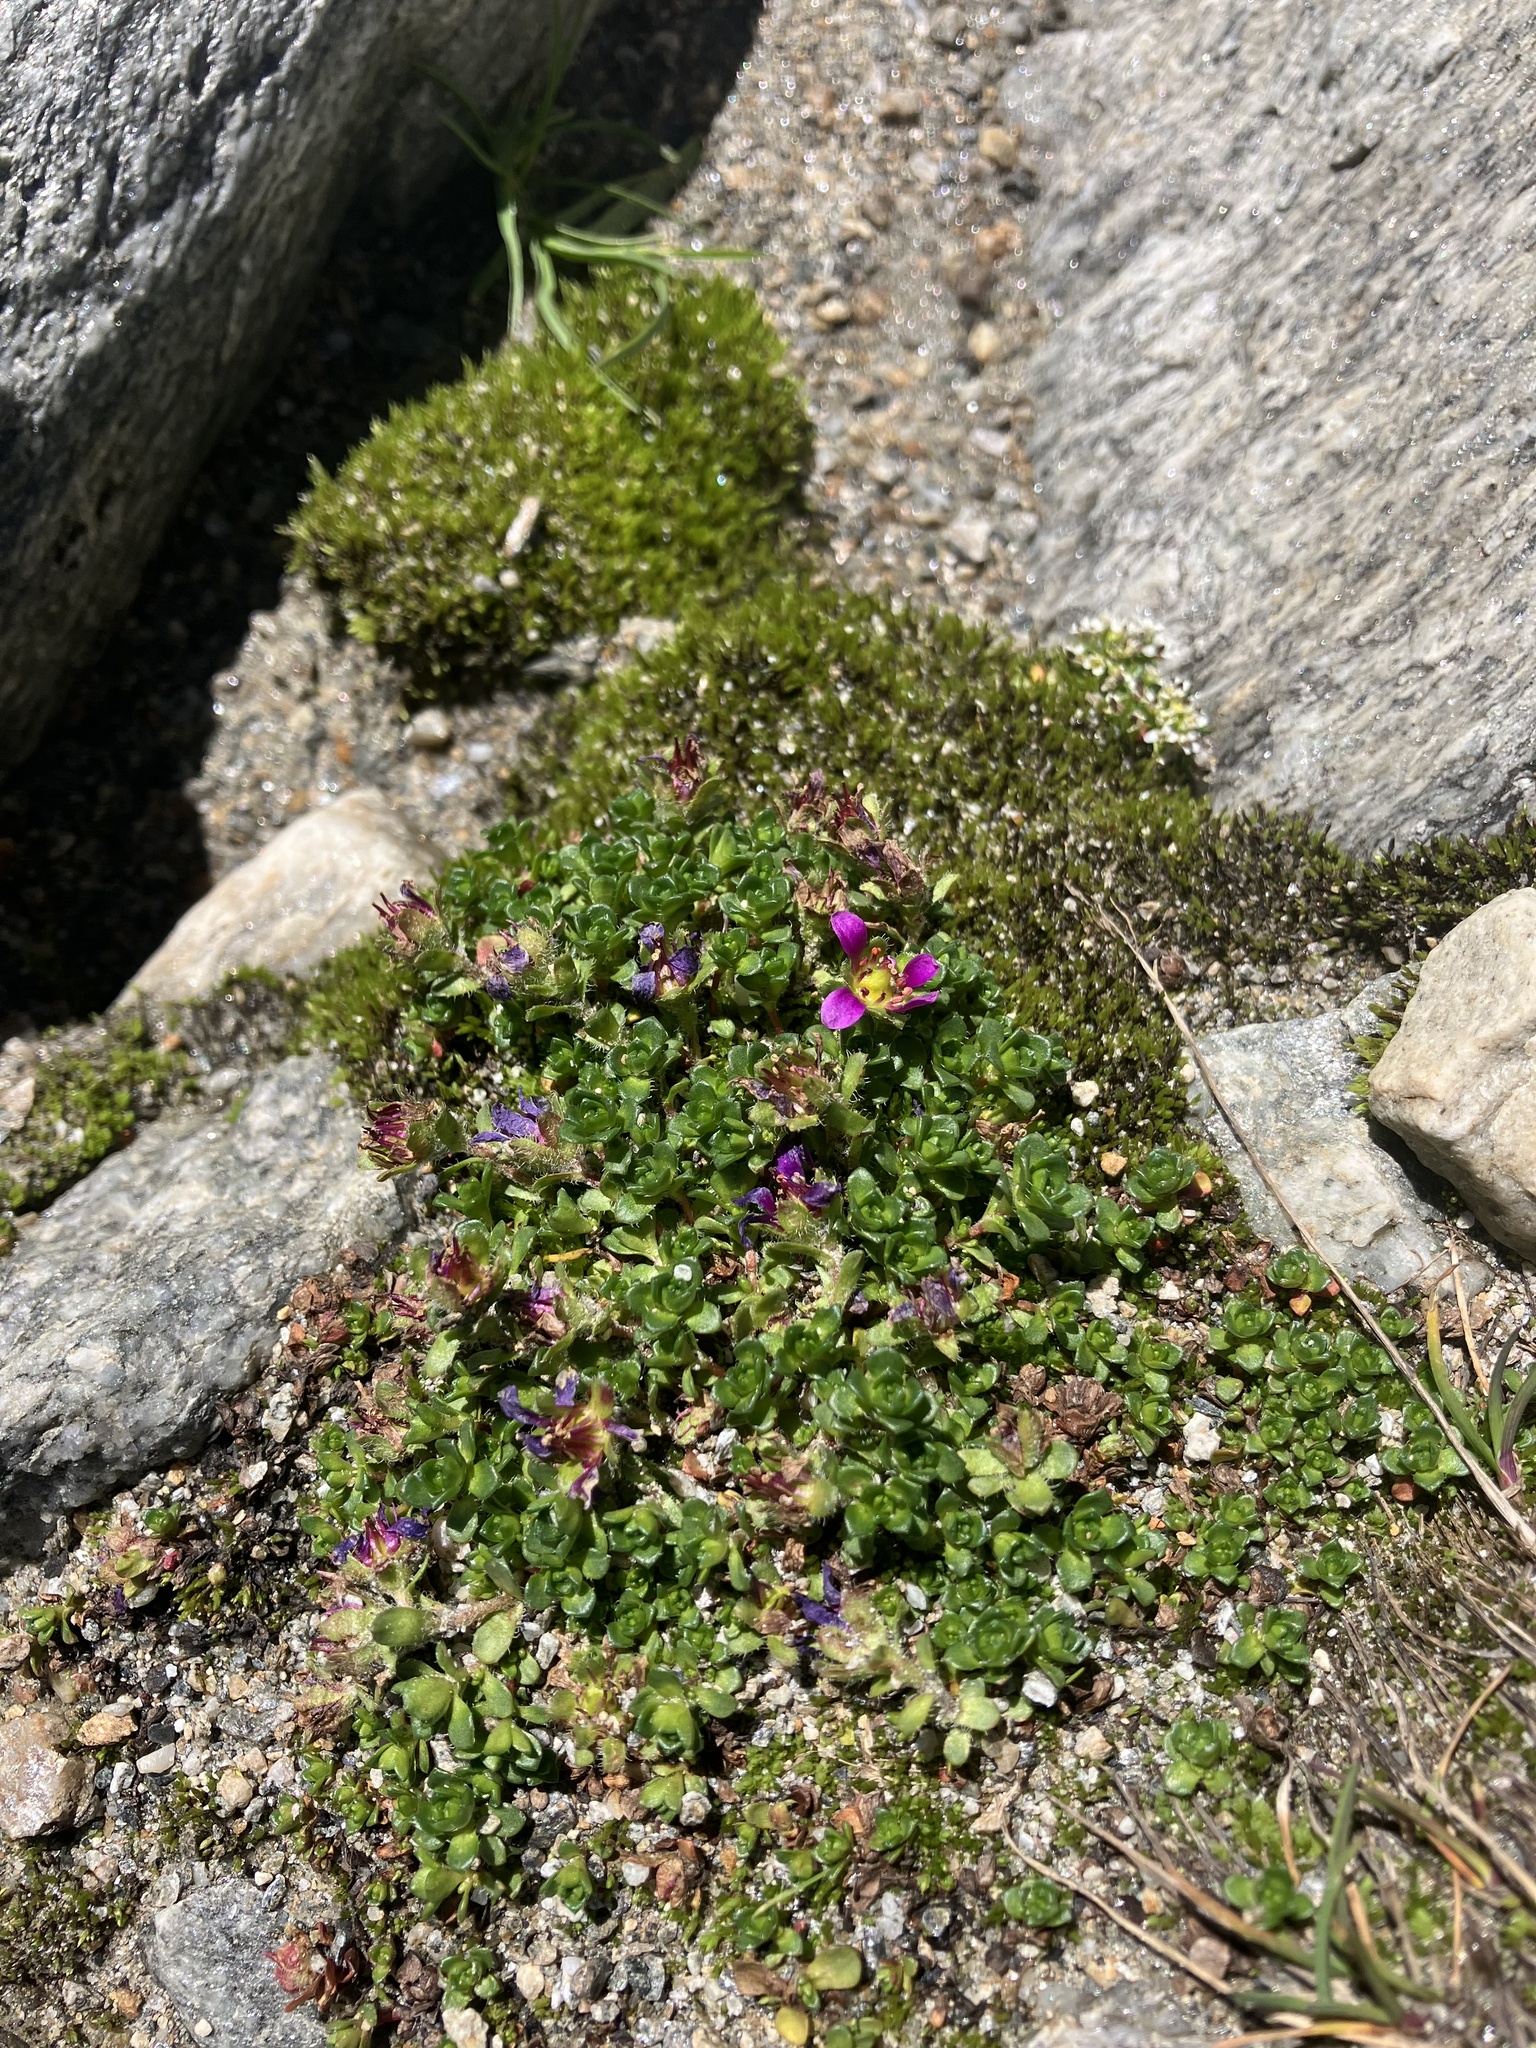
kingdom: Plantae
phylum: Tracheophyta
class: Magnoliopsida
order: Saxifragales
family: Saxifragaceae
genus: Saxifraga
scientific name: Saxifraga biflora
